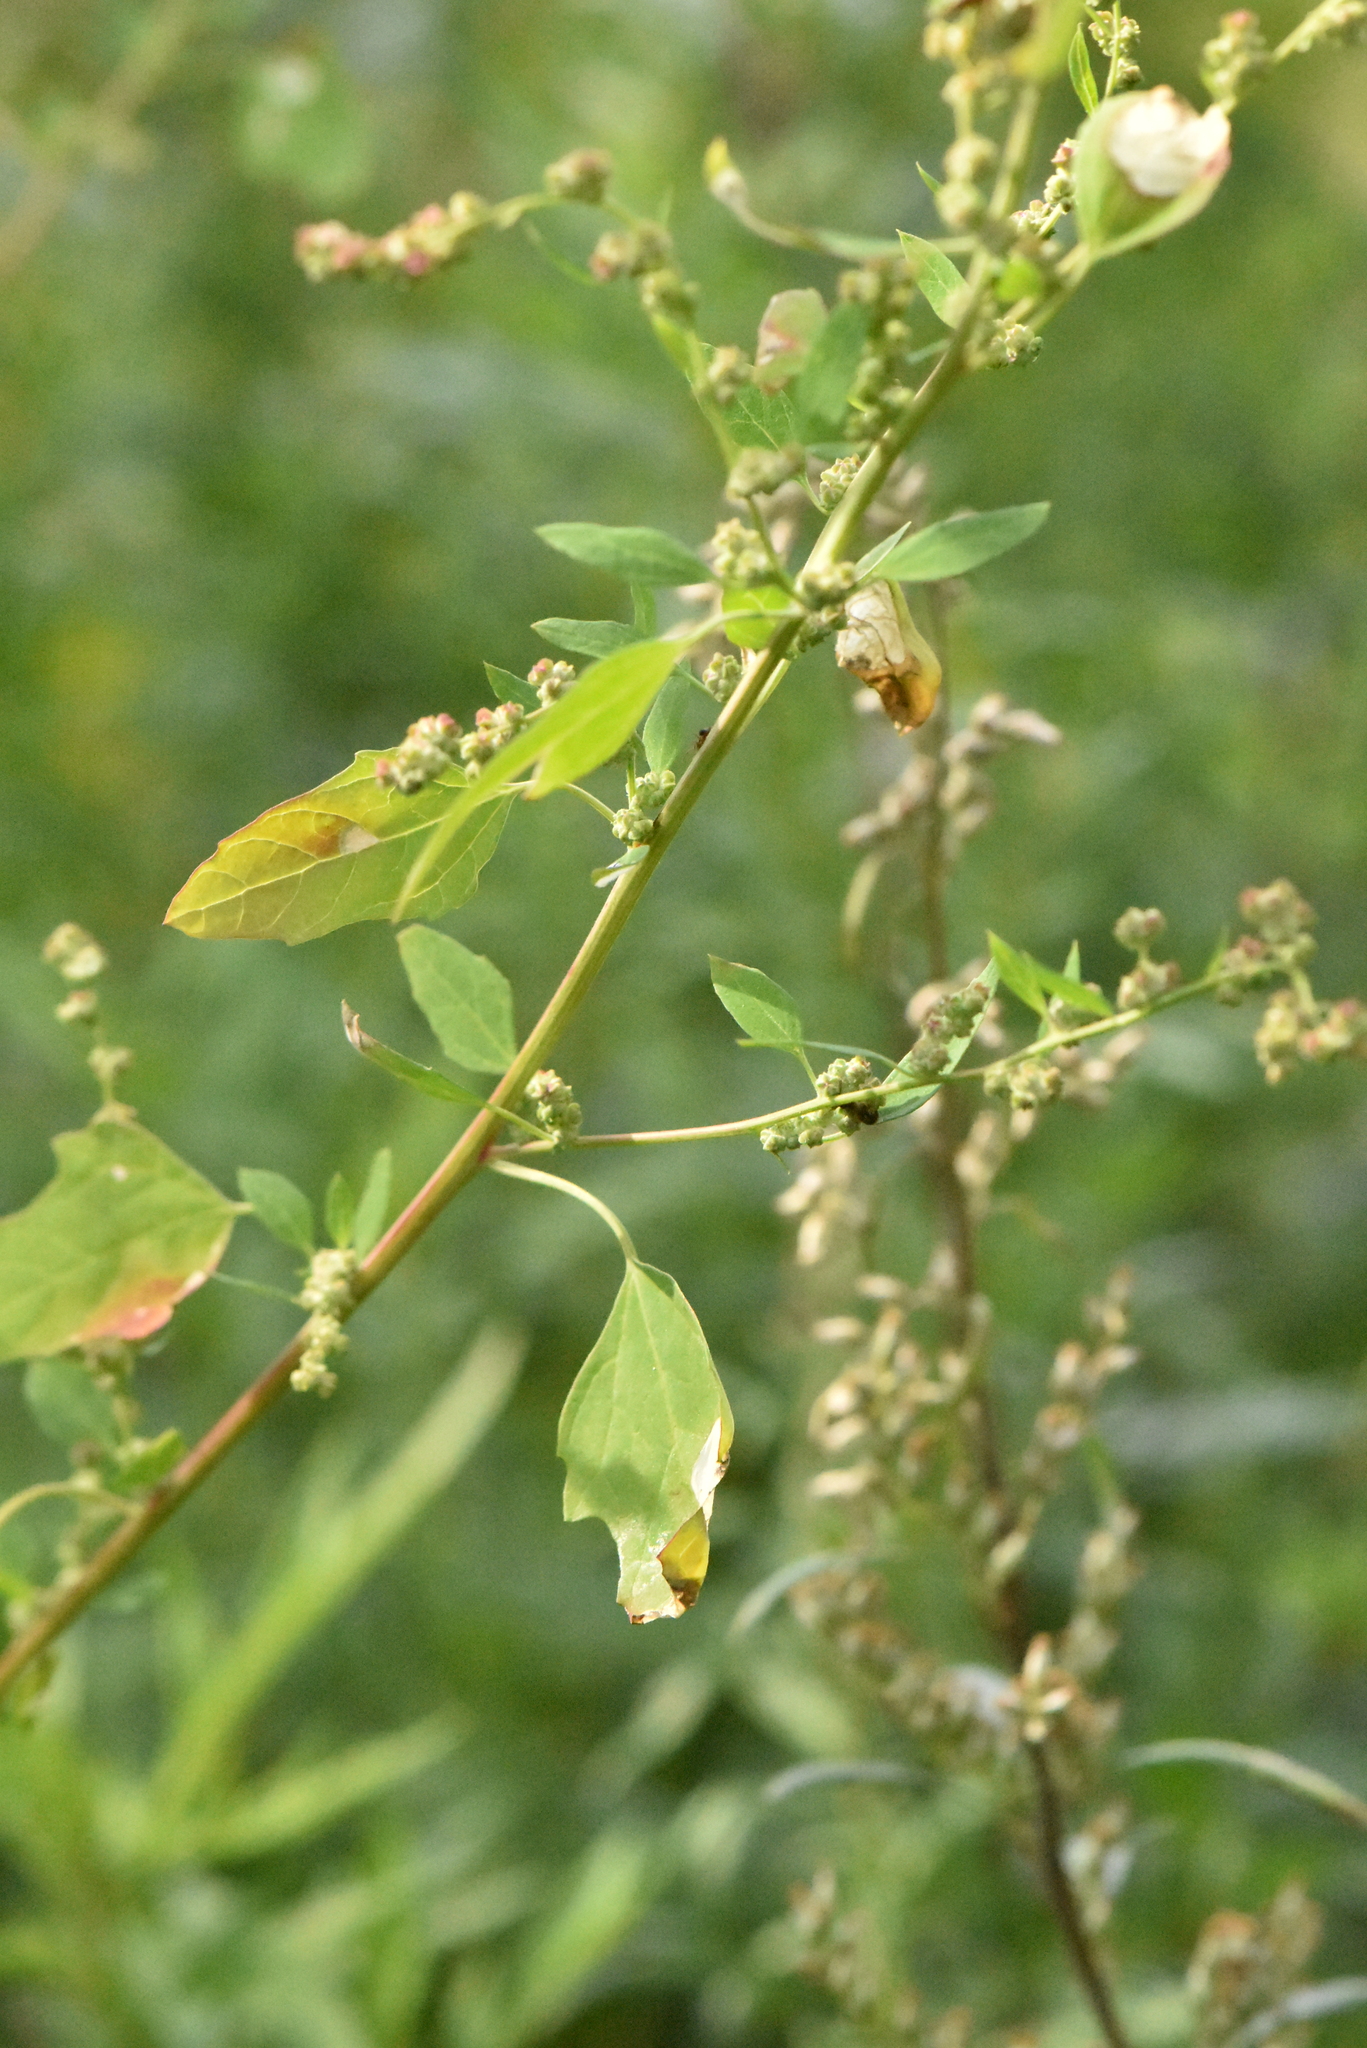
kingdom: Plantae
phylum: Tracheophyta
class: Magnoliopsida
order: Caryophyllales
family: Amaranthaceae
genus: Chenopodium
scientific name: Chenopodium album
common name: Fat-hen
